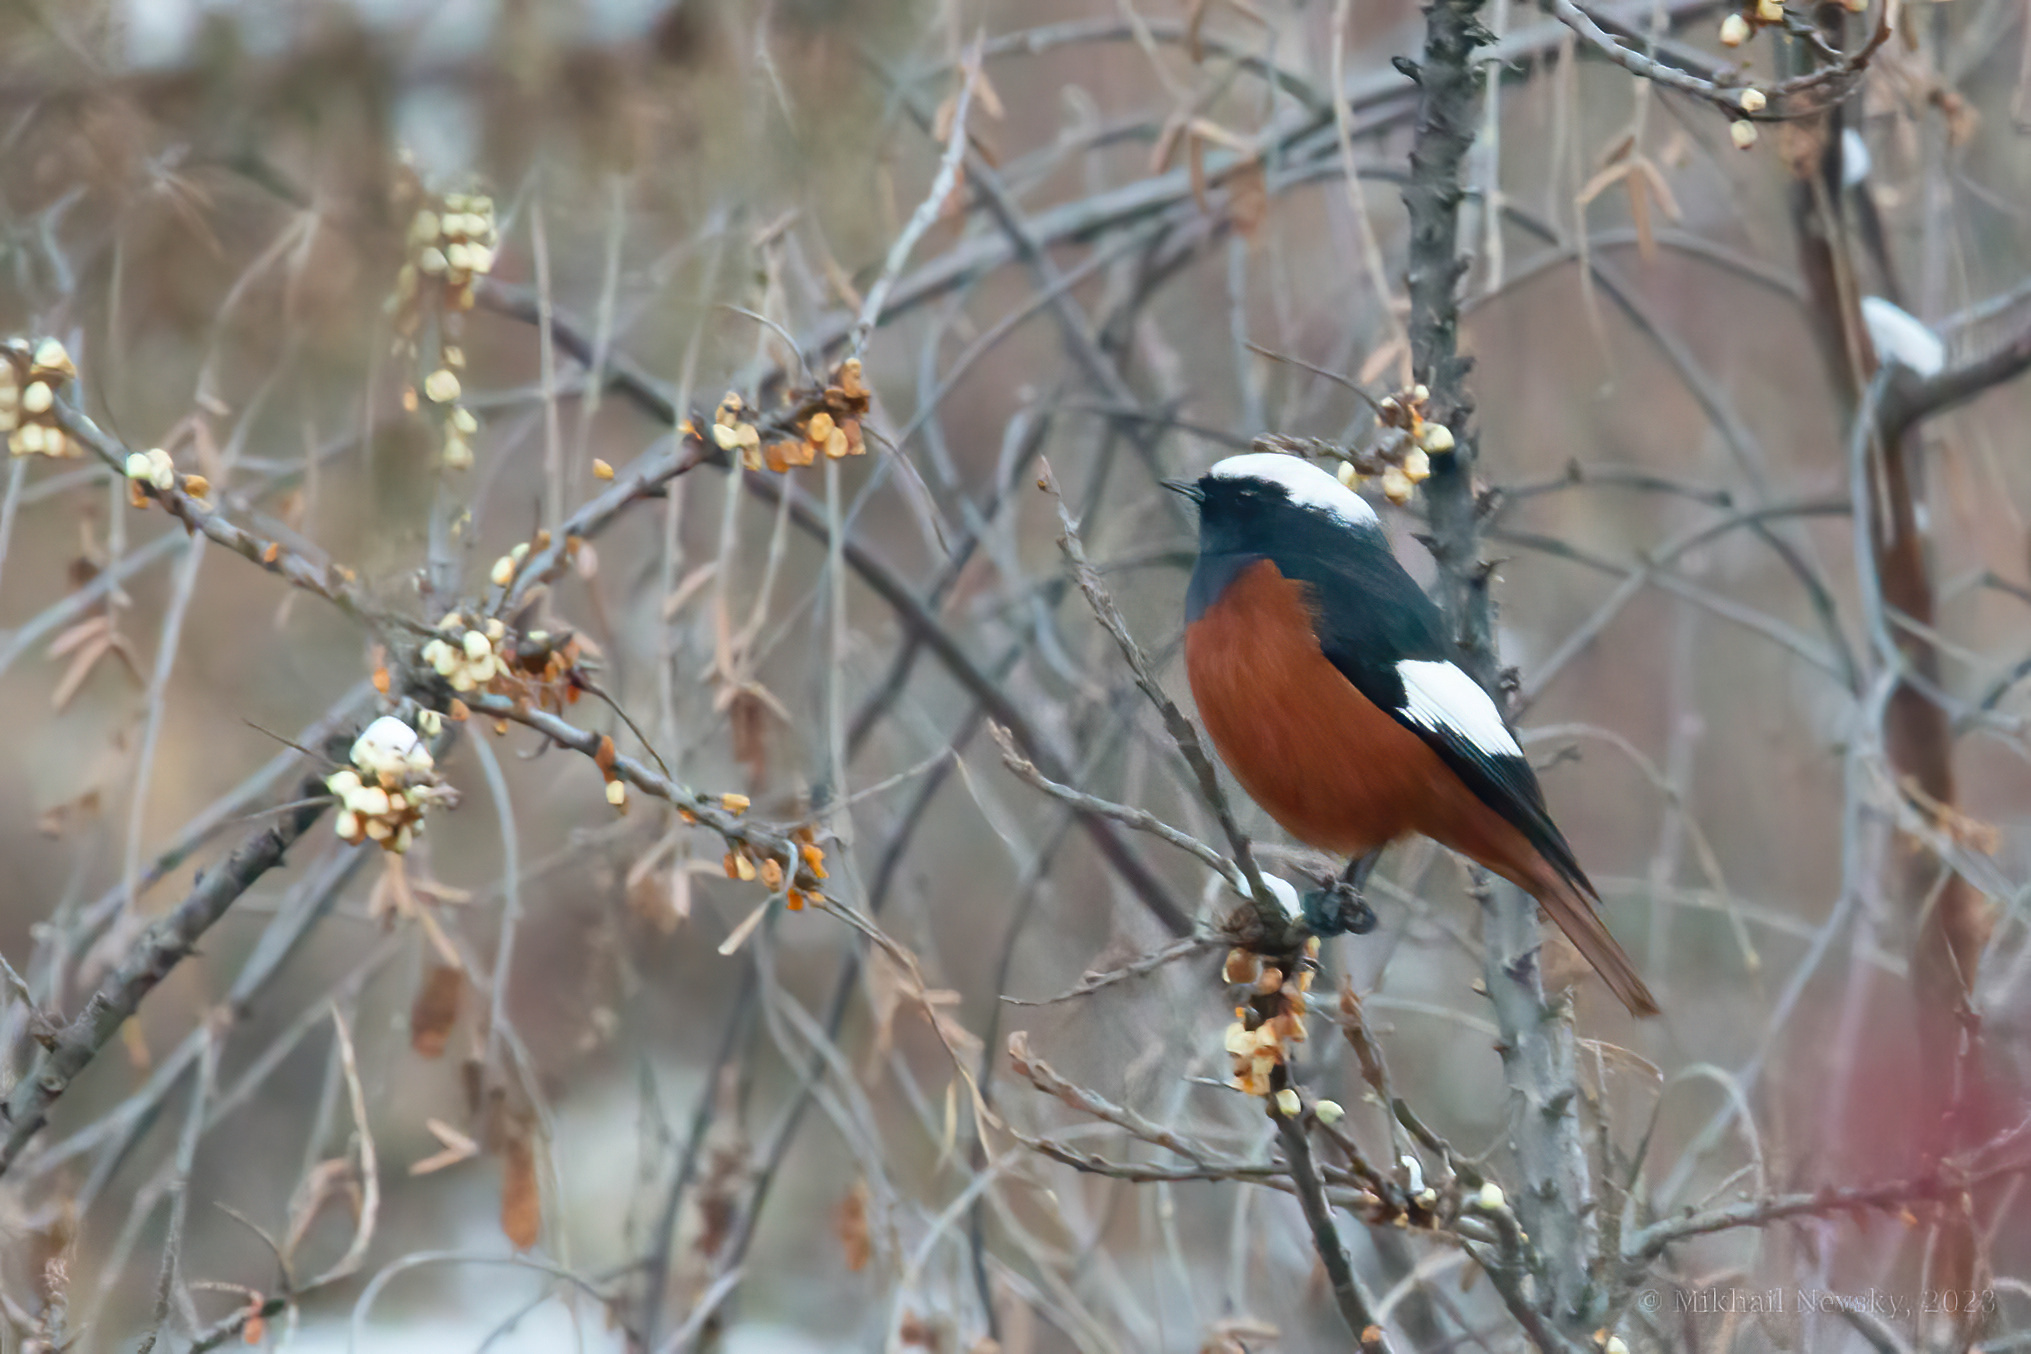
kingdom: Animalia
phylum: Chordata
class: Aves
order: Passeriformes
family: Muscicapidae
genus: Phoenicurus
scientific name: Phoenicurus erythrogastrus
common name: Güldenstädt's redstart
